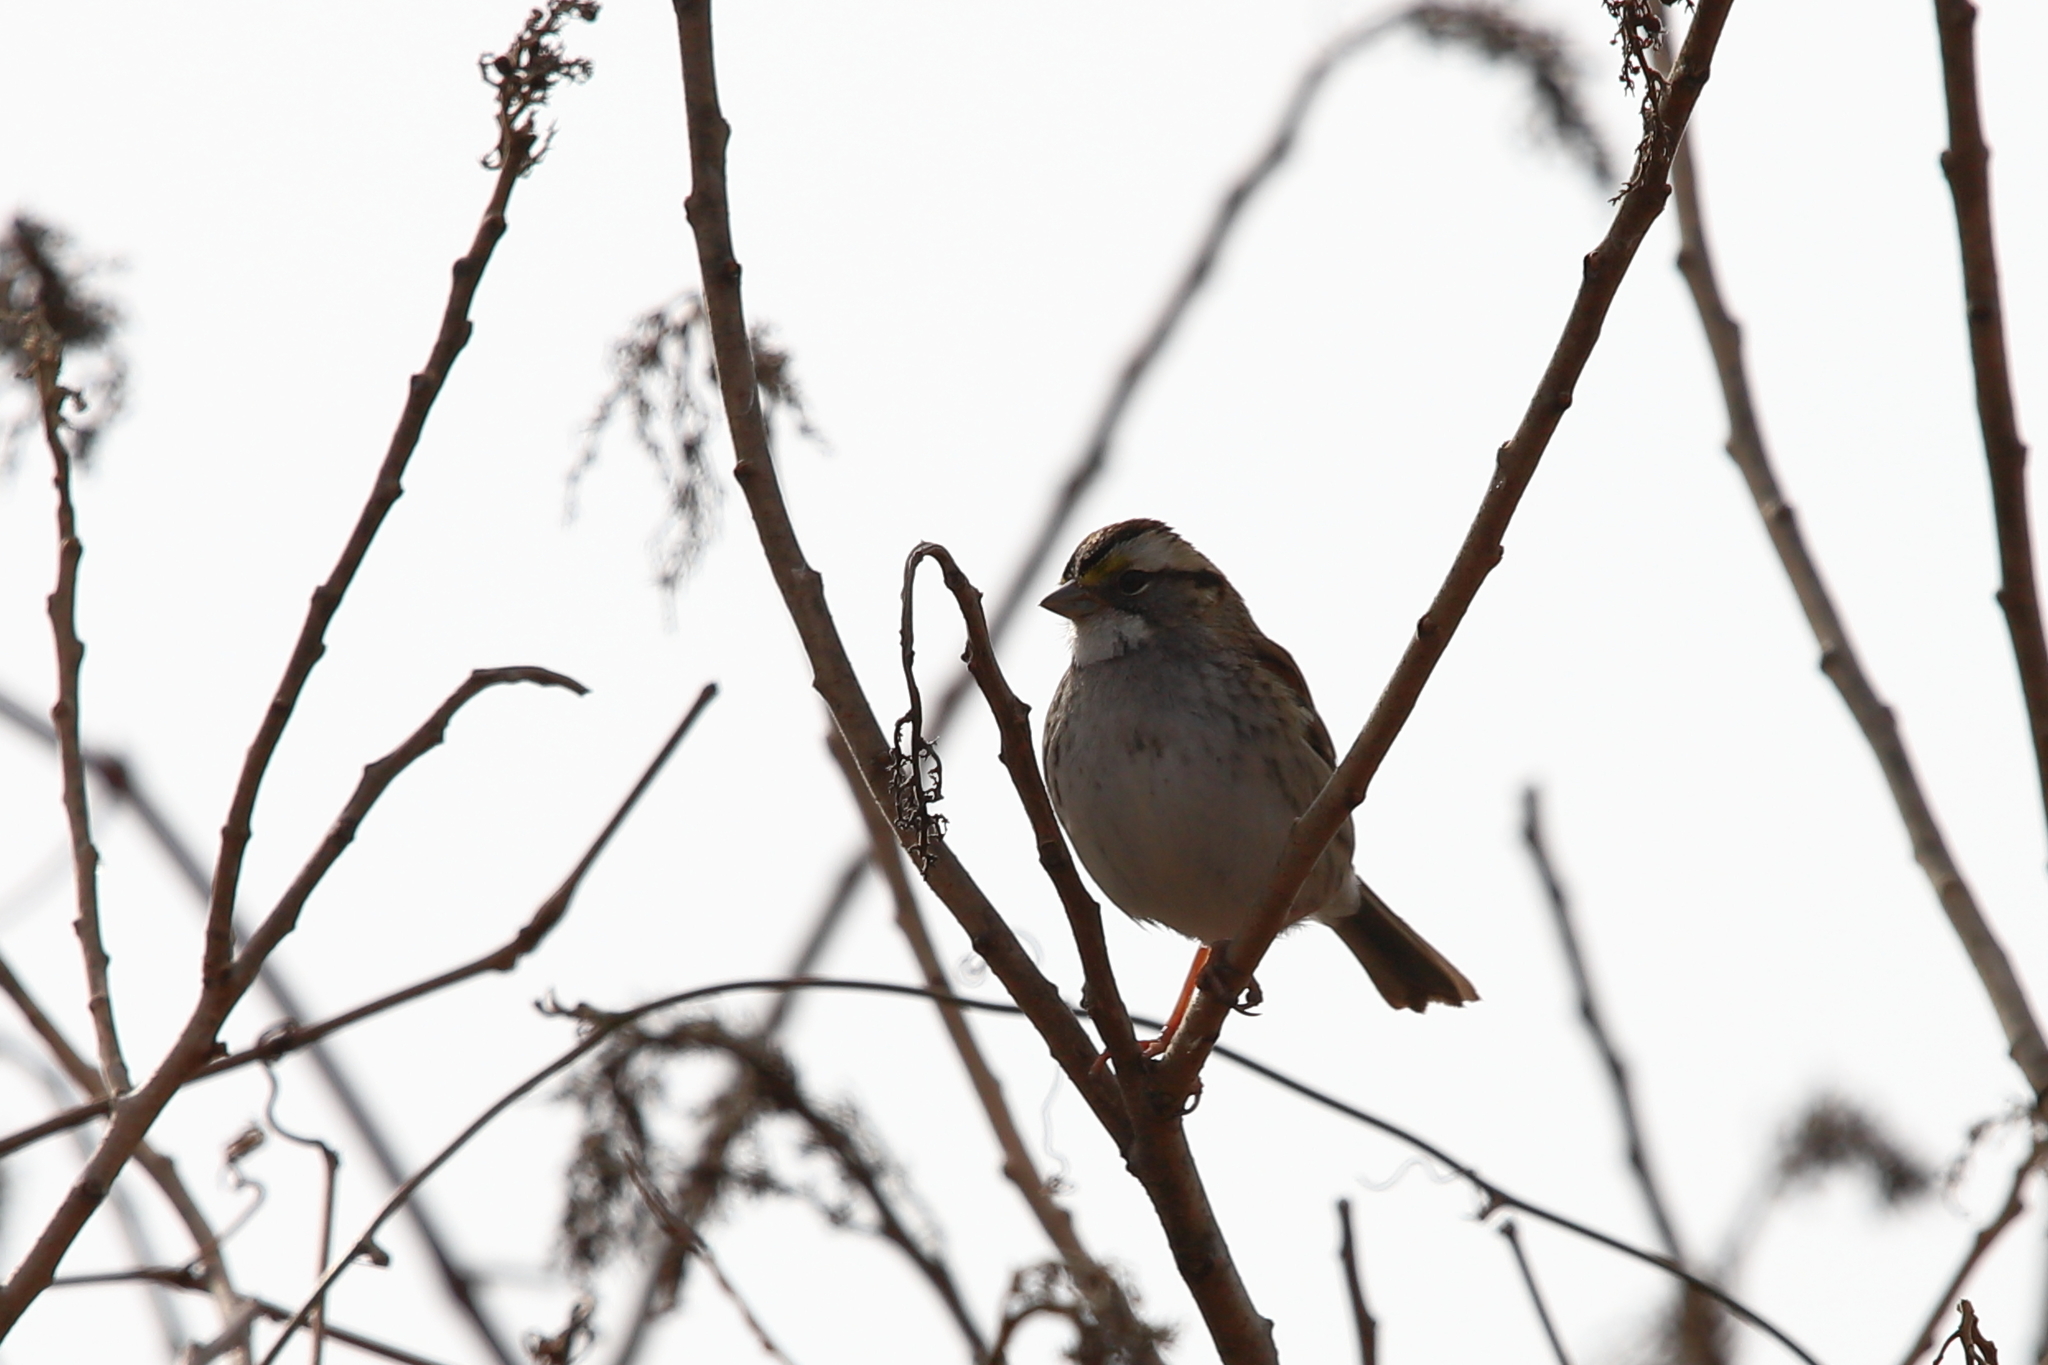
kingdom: Animalia
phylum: Chordata
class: Aves
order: Passeriformes
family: Passerellidae
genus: Zonotrichia
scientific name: Zonotrichia albicollis
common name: White-throated sparrow
